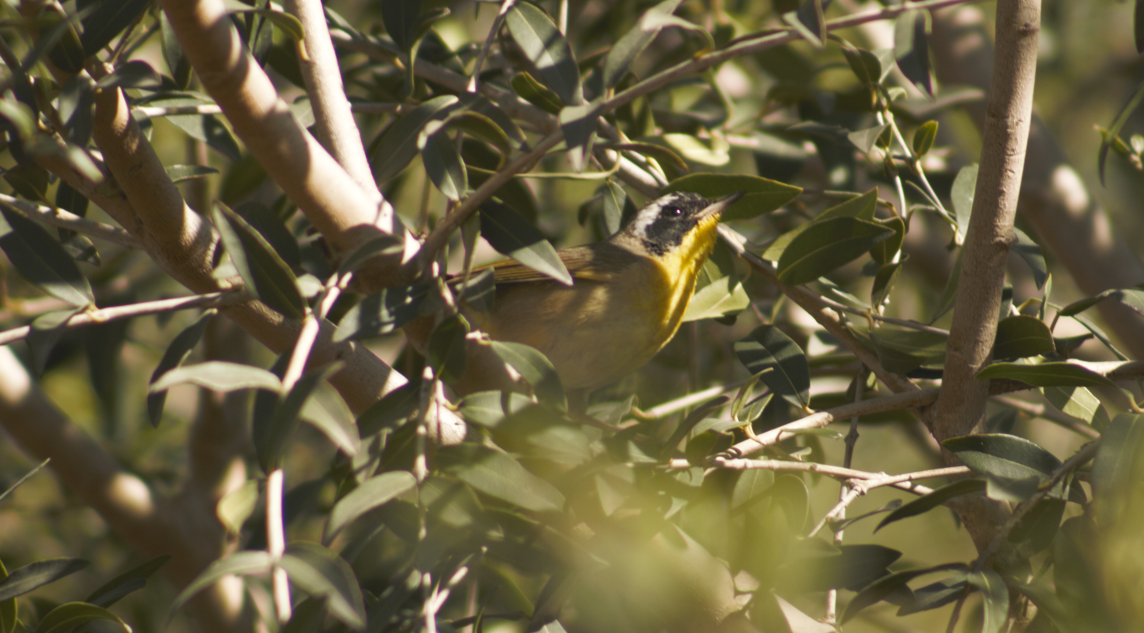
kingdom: Animalia
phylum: Chordata
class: Aves
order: Passeriformes
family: Parulidae
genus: Geothlypis
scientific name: Geothlypis trichas
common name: Common yellowthroat
